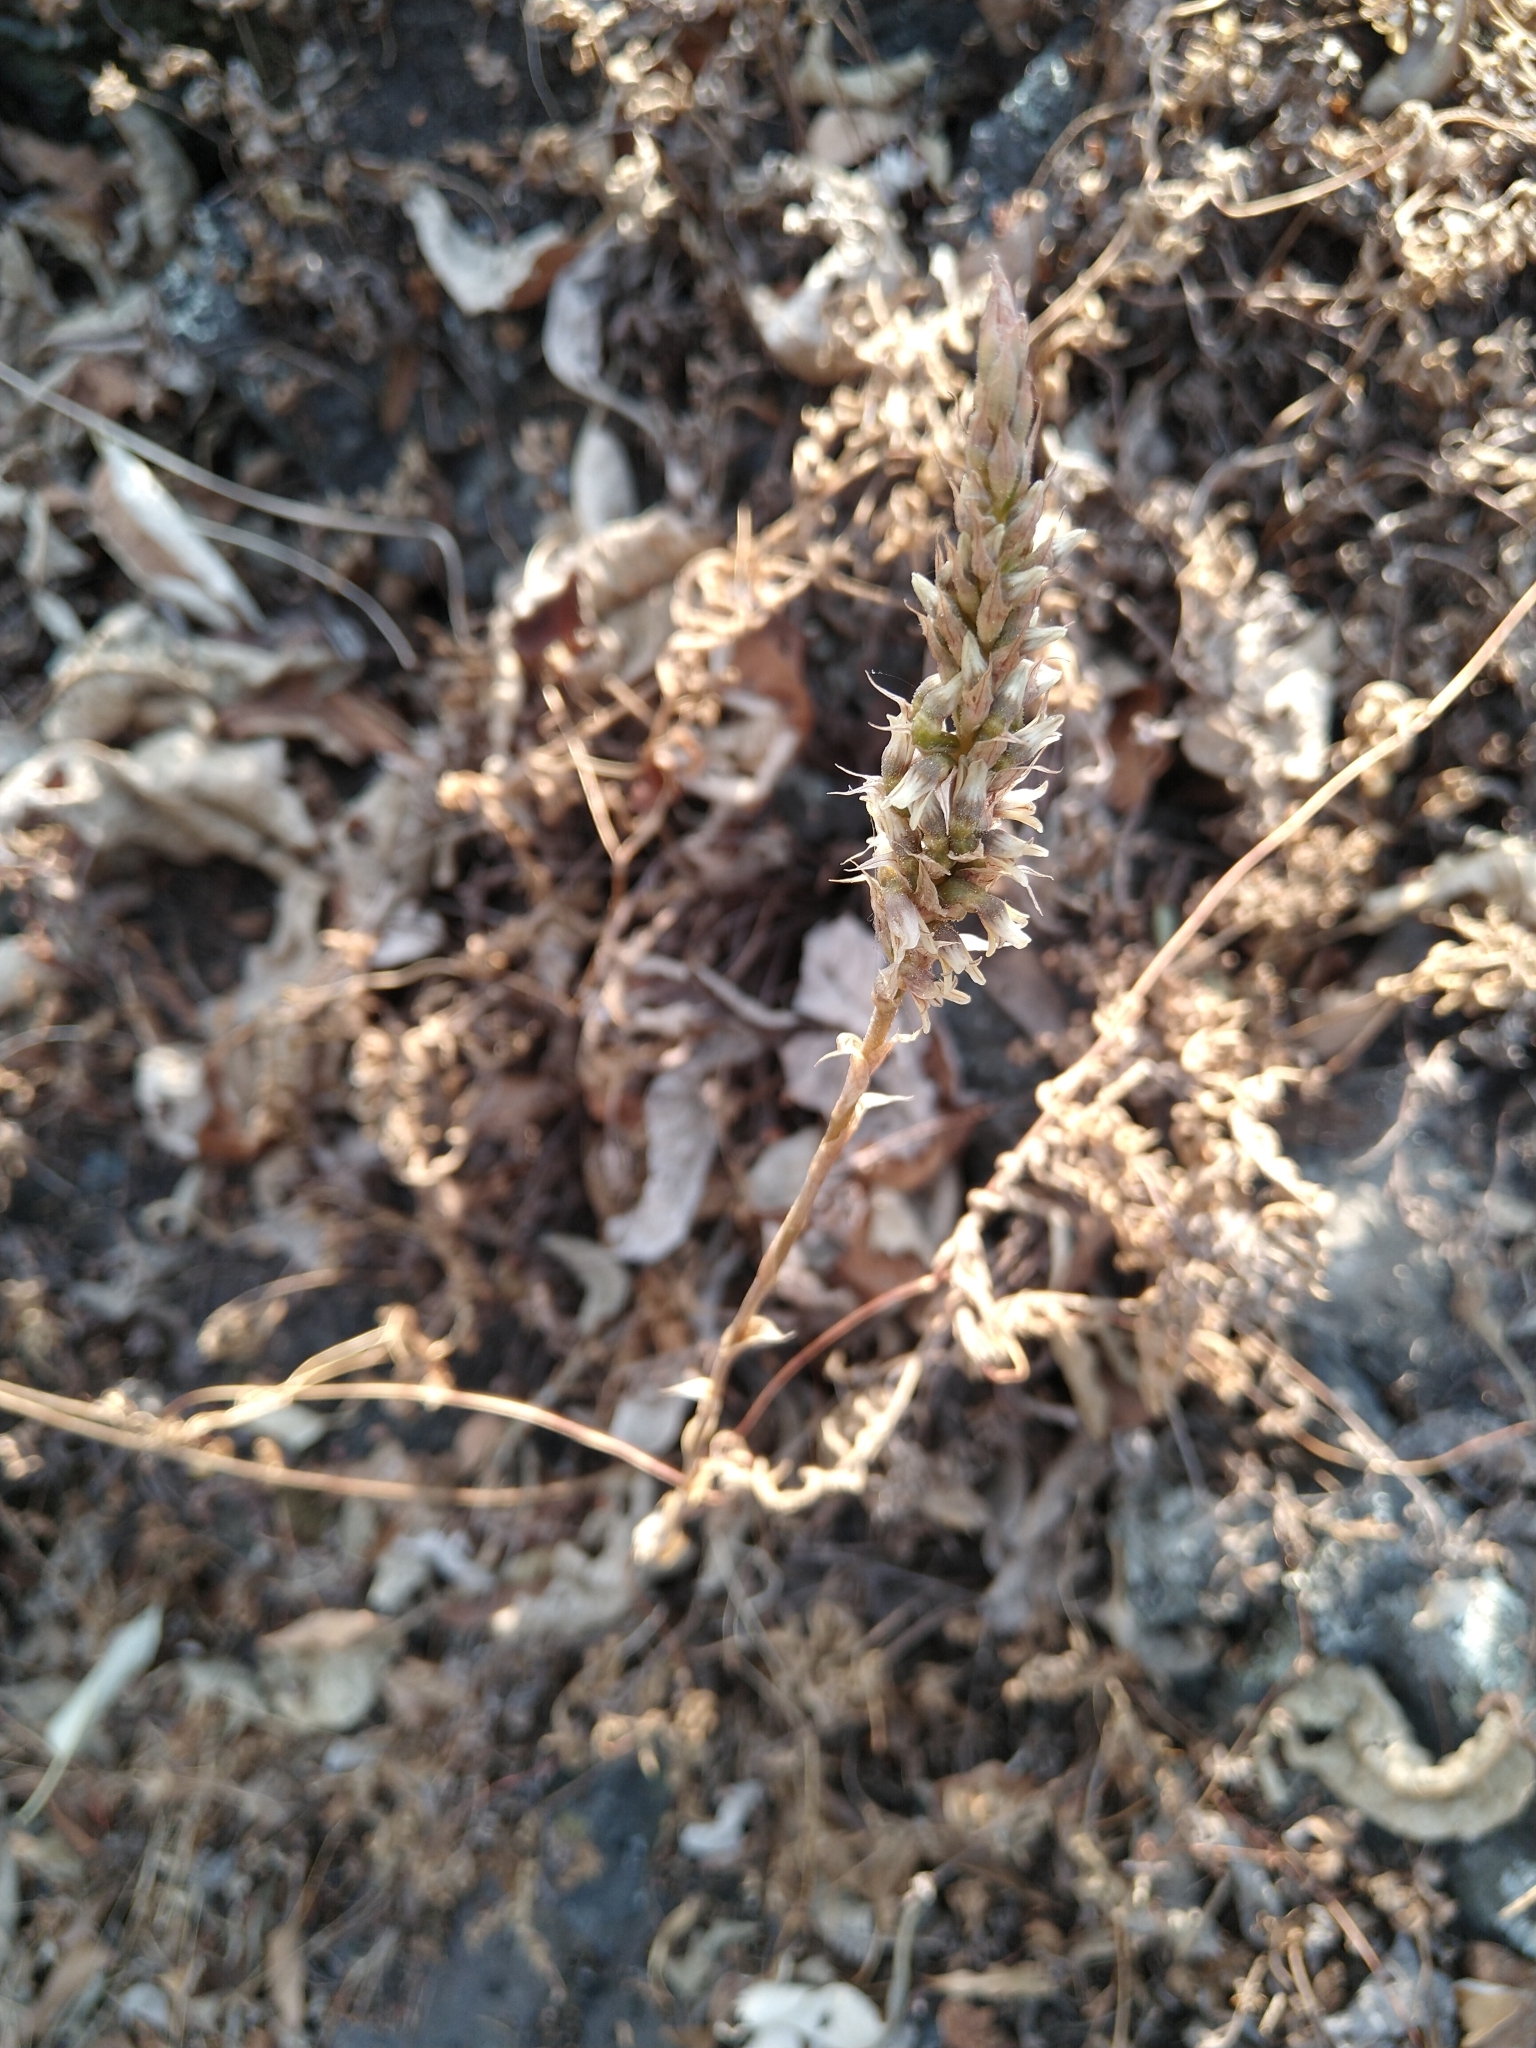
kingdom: Plantae
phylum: Tracheophyta
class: Liliopsida
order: Asparagales
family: Orchidaceae
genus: Aulosepalum
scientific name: Aulosepalum pyramidale
